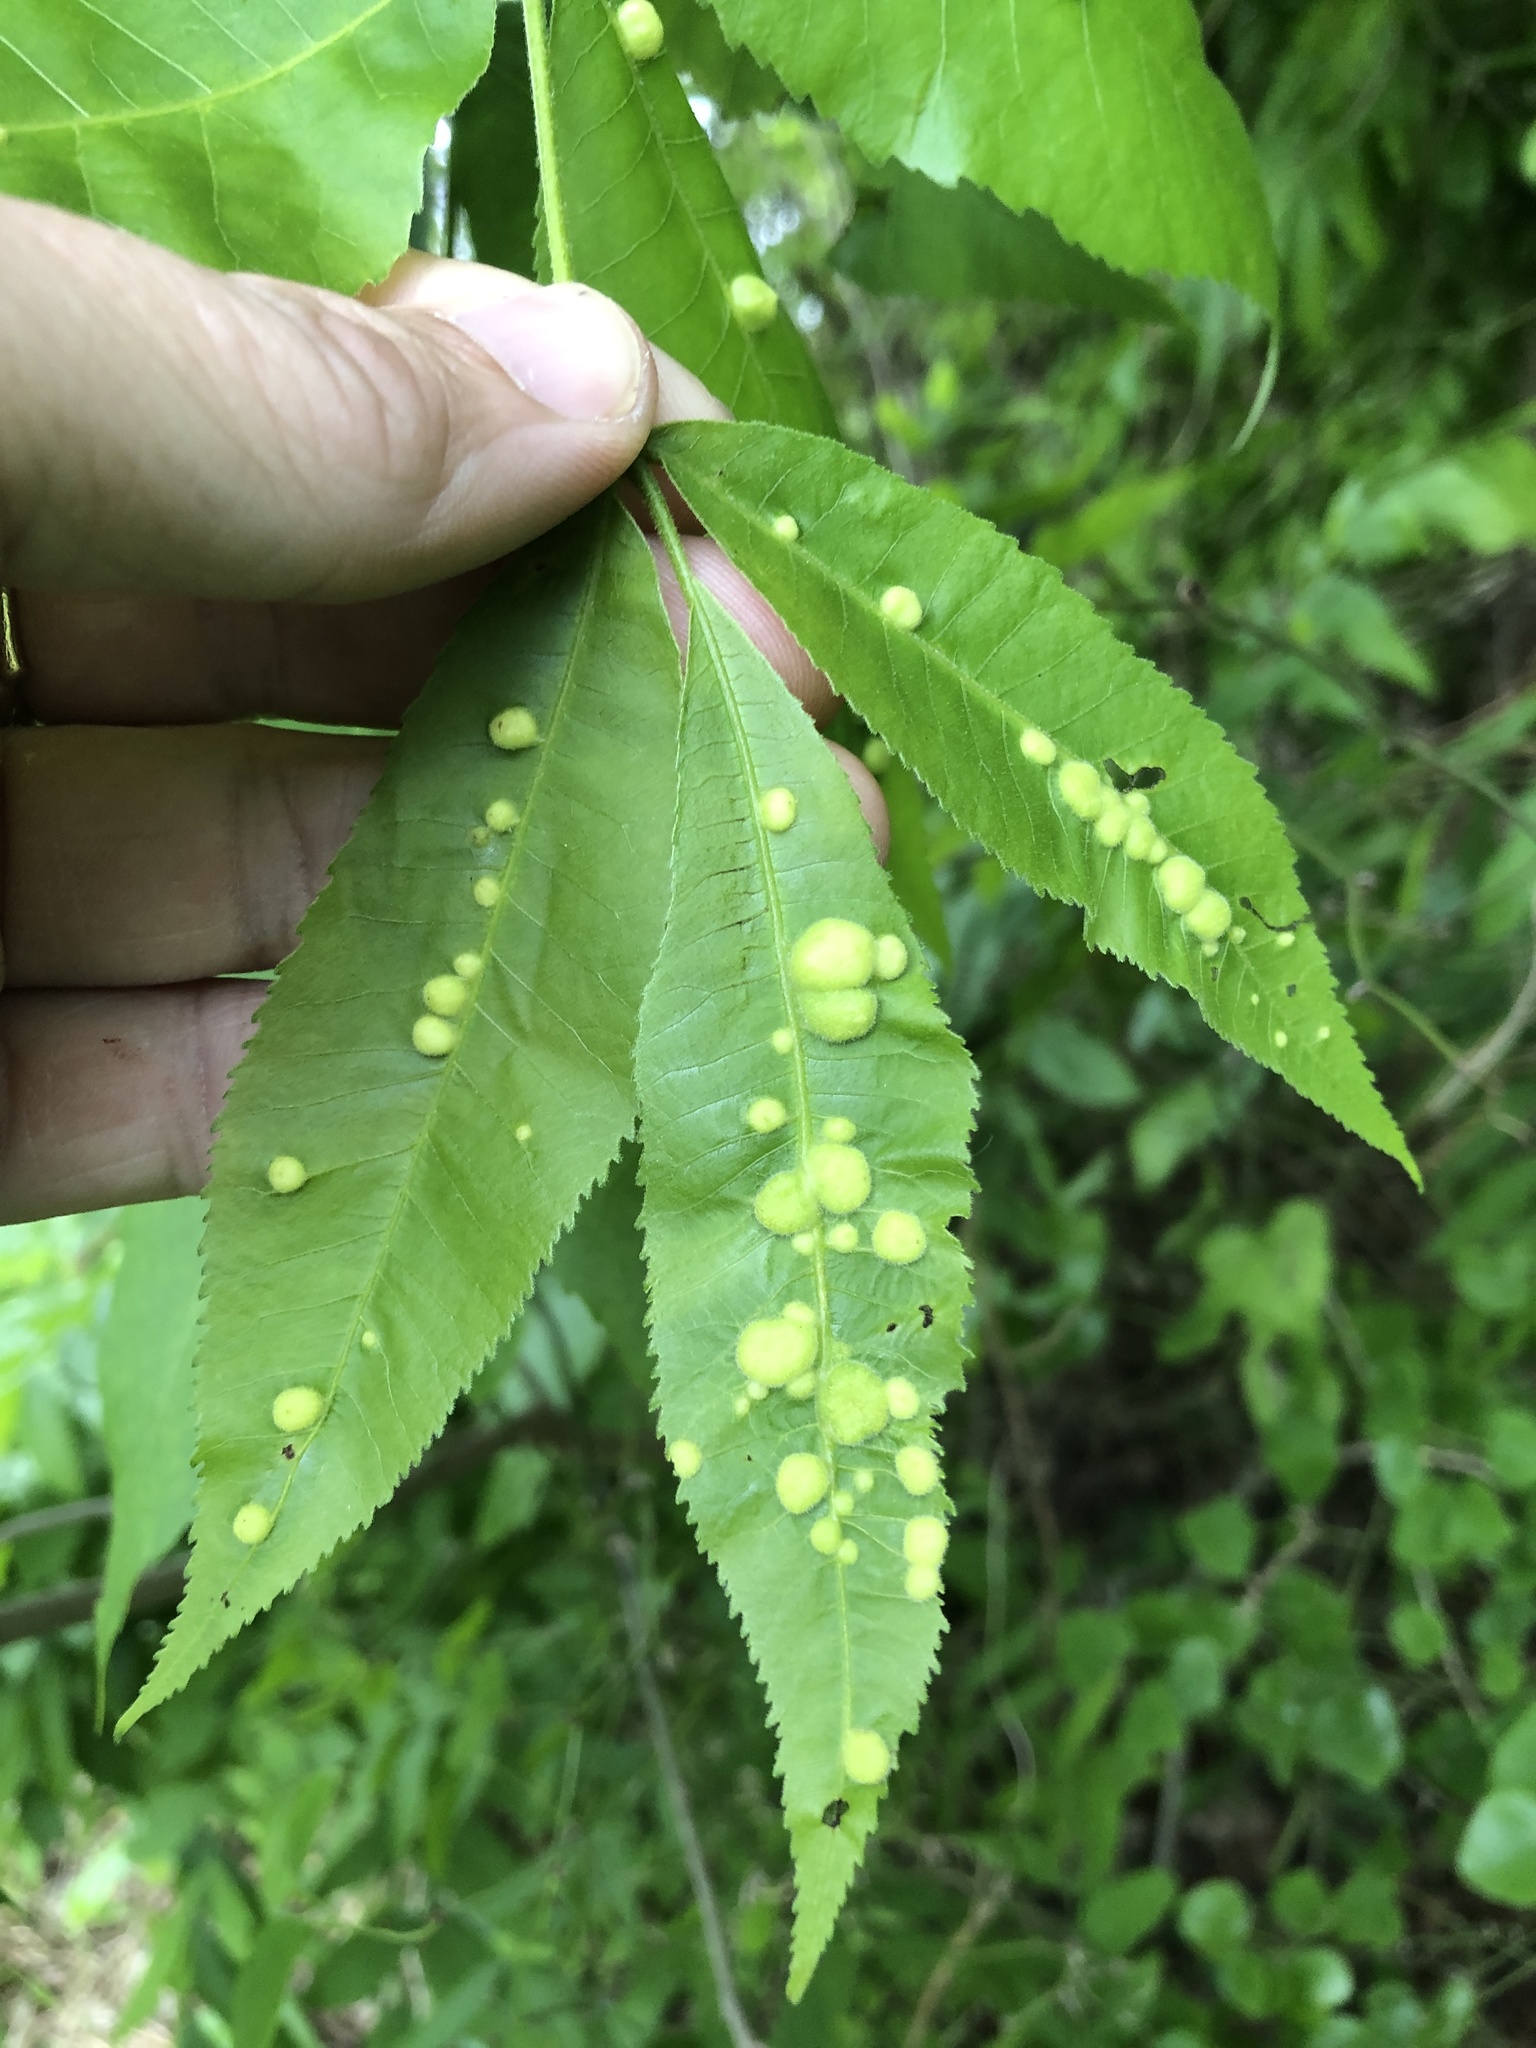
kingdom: Animalia
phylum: Arthropoda
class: Insecta
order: Hemiptera
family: Phylloxeridae
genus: Daktulosphaira
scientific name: Daktulosphaira notabilis
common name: Pecan leaf phylloxera
